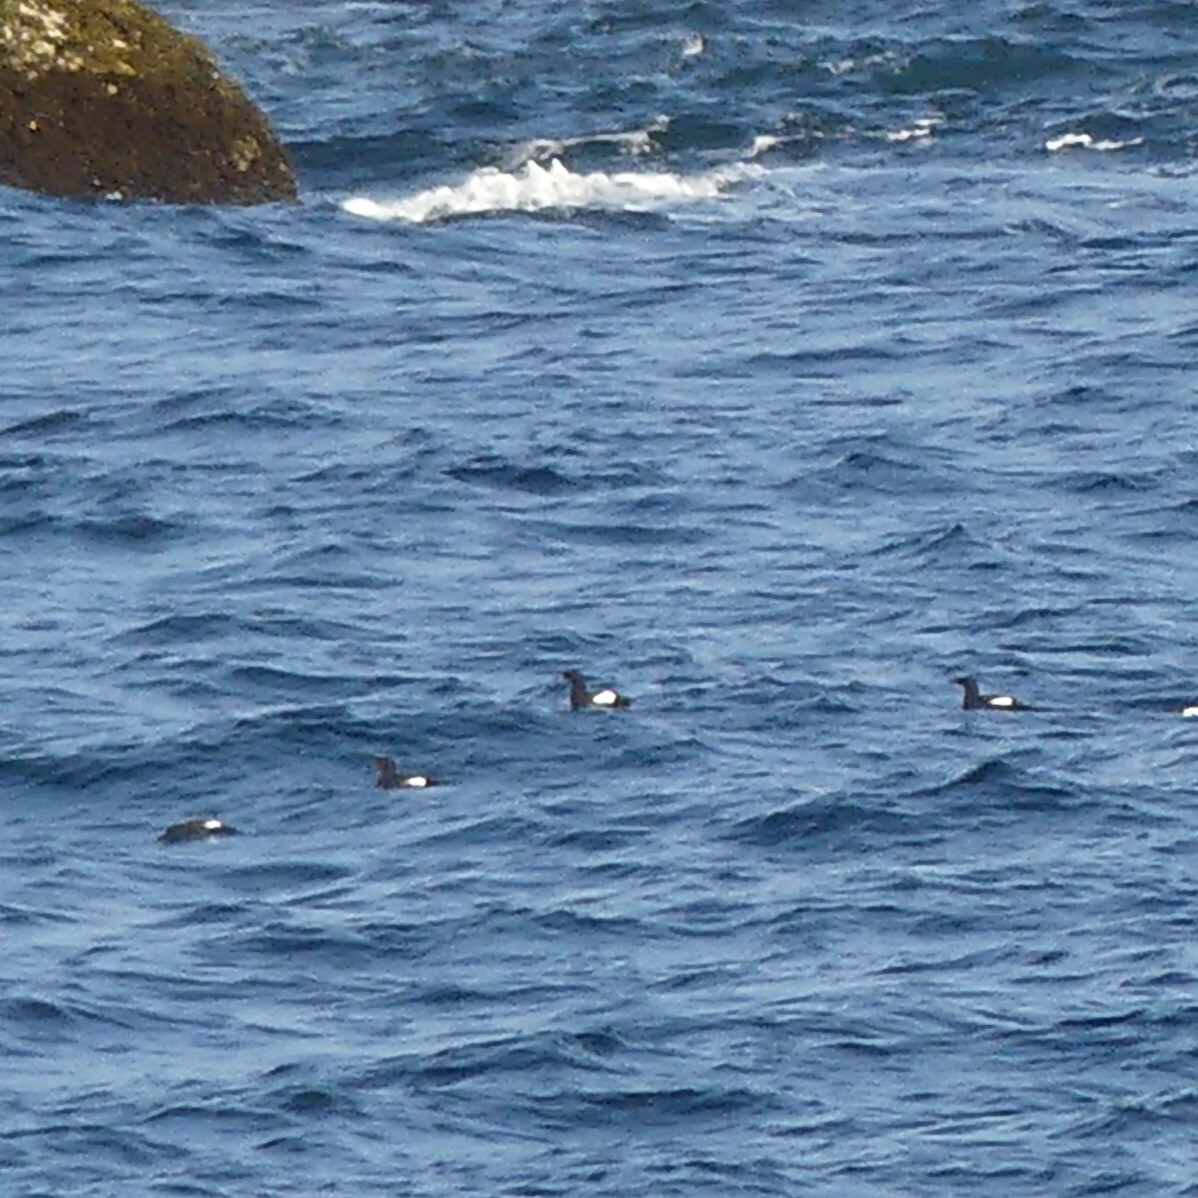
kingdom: Animalia
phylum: Chordata
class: Aves
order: Charadriiformes
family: Alcidae
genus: Cepphus
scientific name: Cepphus grylle
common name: Black guillemot
